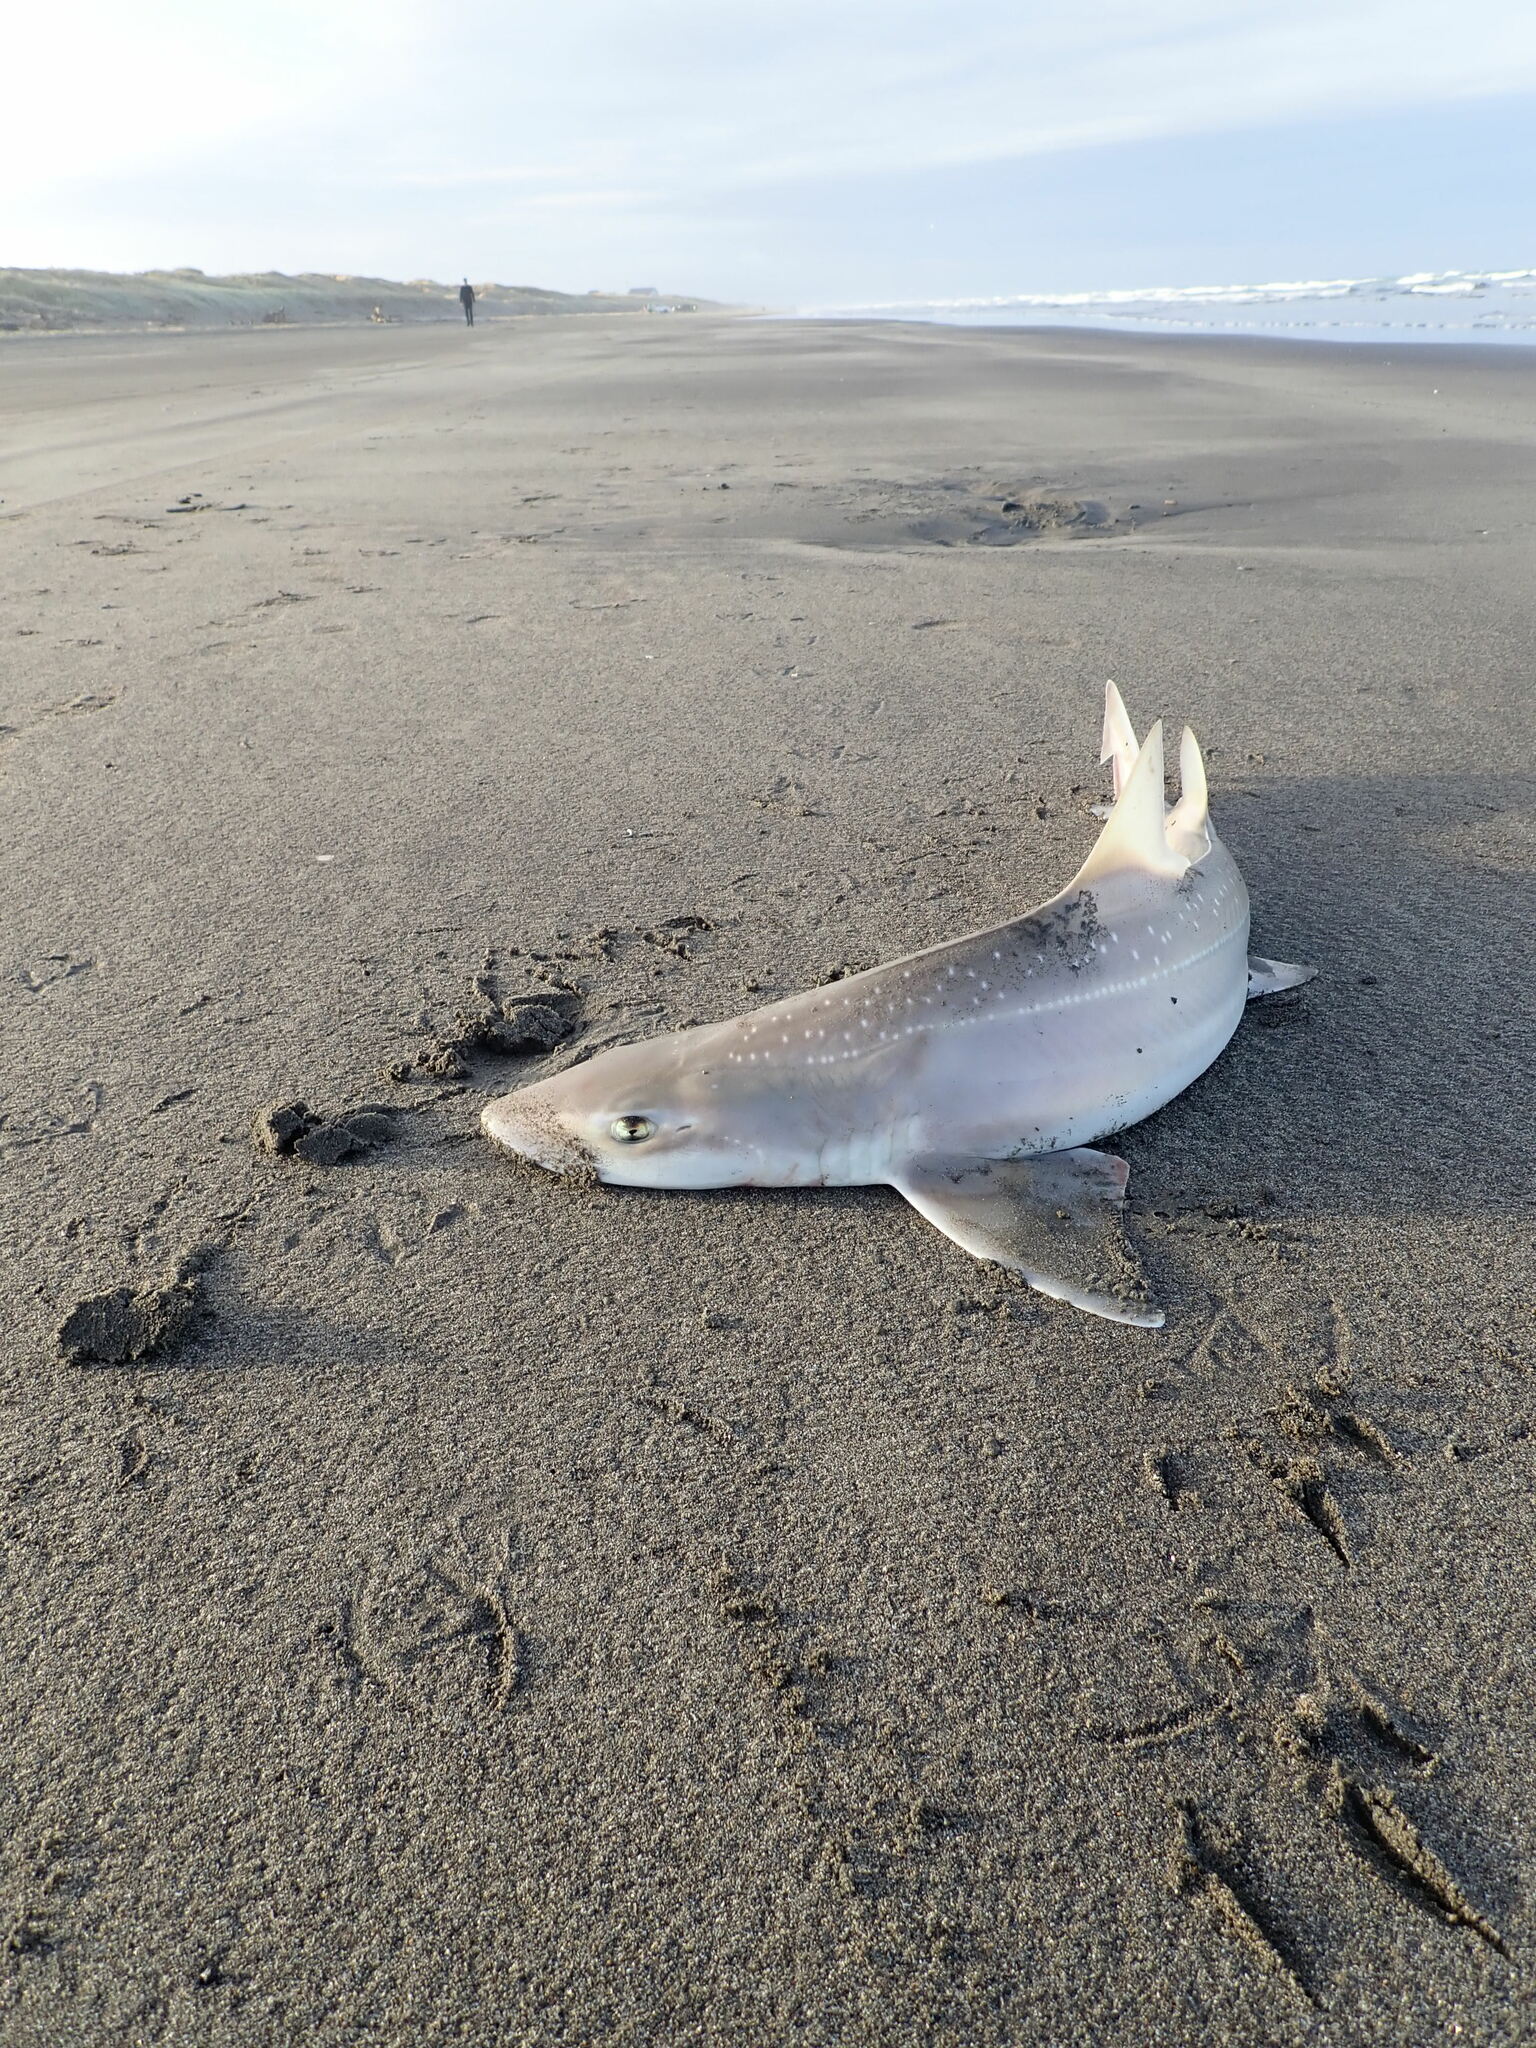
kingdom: Animalia
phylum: Chordata
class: Elasmobranchii
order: Carcharhiniformes
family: Triakidae
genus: Mustelus
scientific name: Mustelus lenticulatus
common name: Gummy shark
